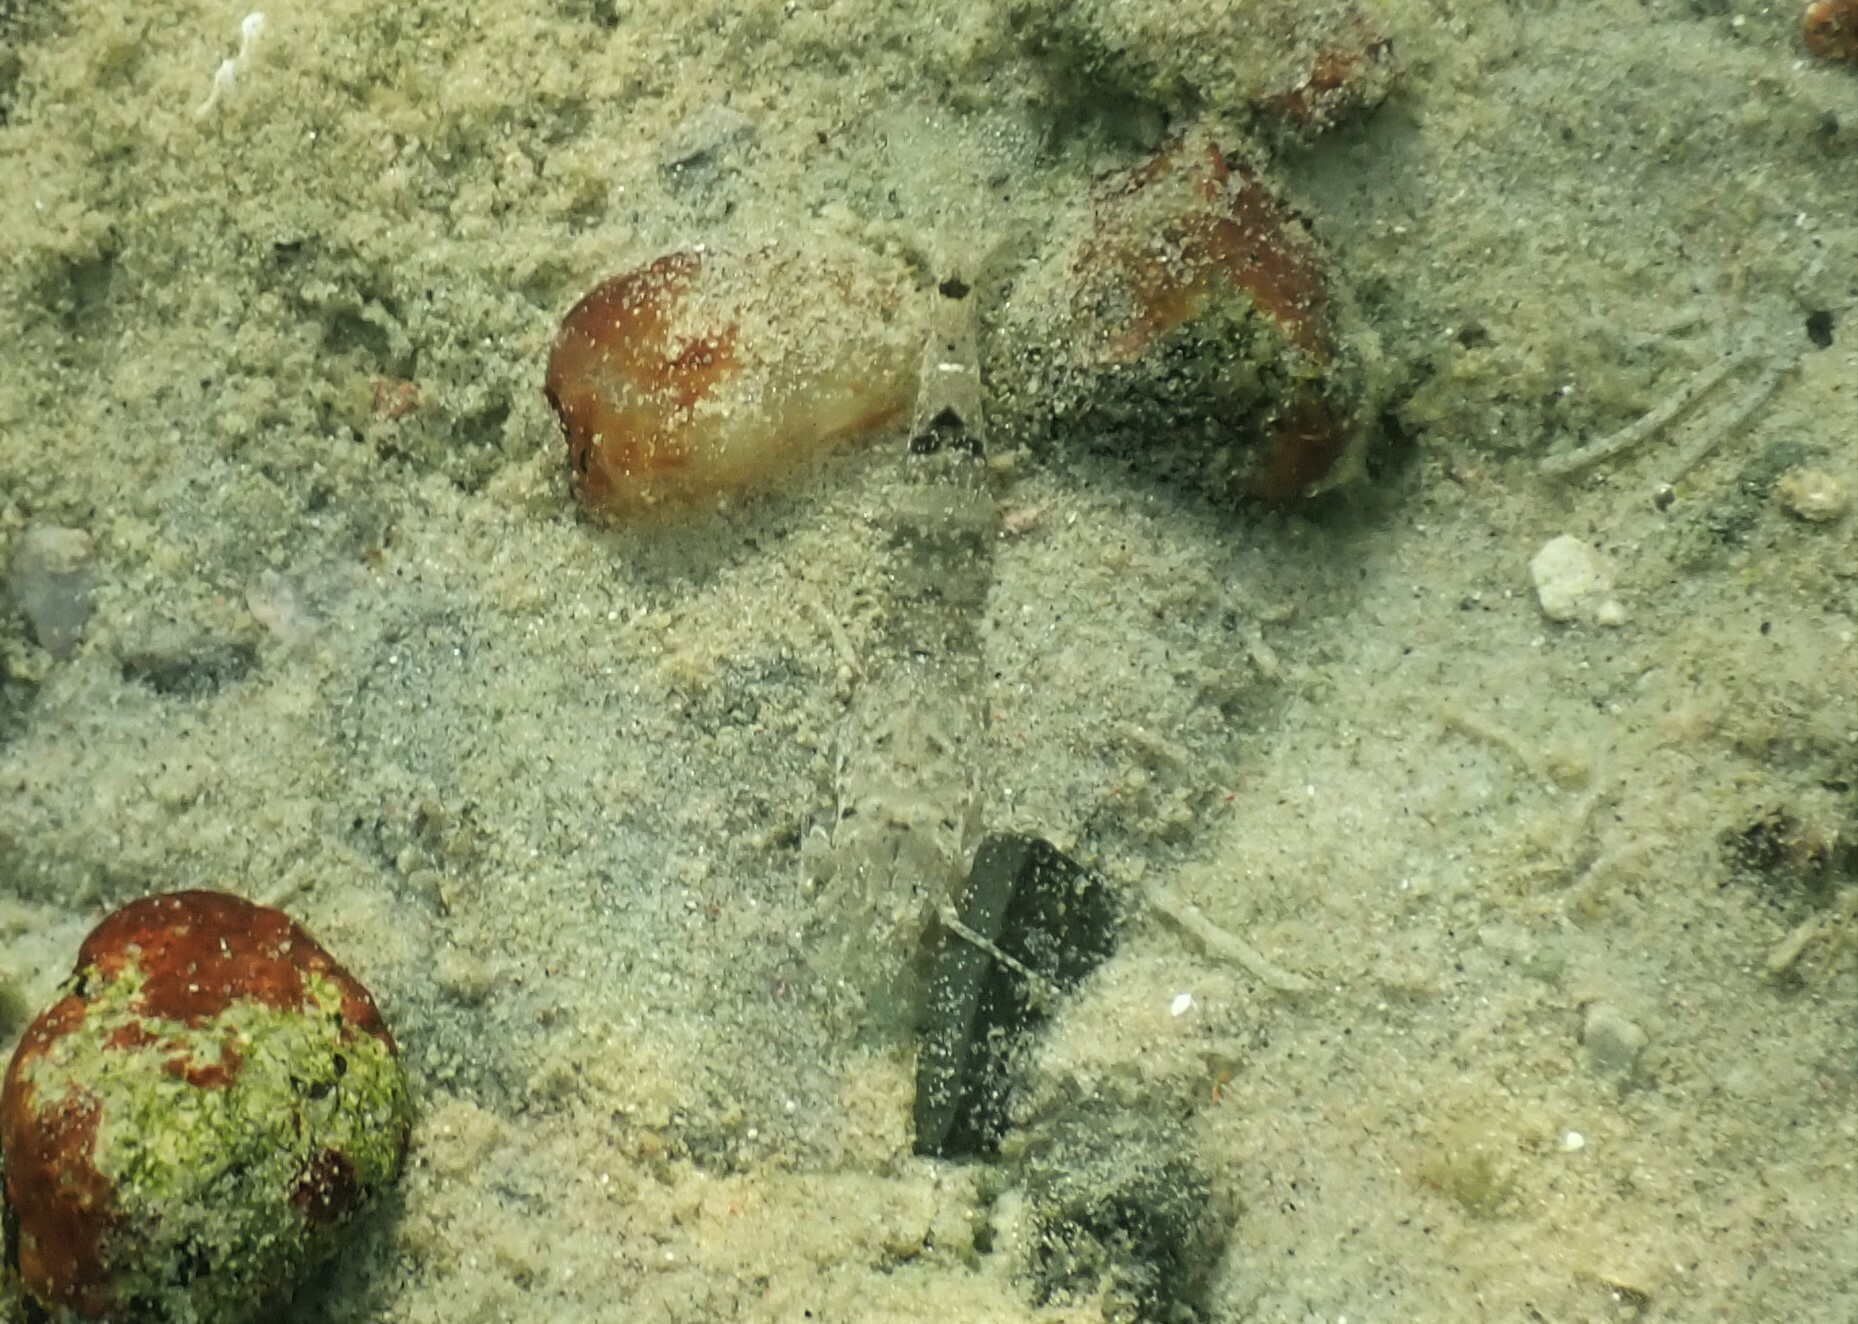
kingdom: Animalia
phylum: Arthropoda
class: Malacostraca
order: Decapoda
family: Crangonidae
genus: Crangon
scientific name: Crangon crangon
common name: Brown shrimp
